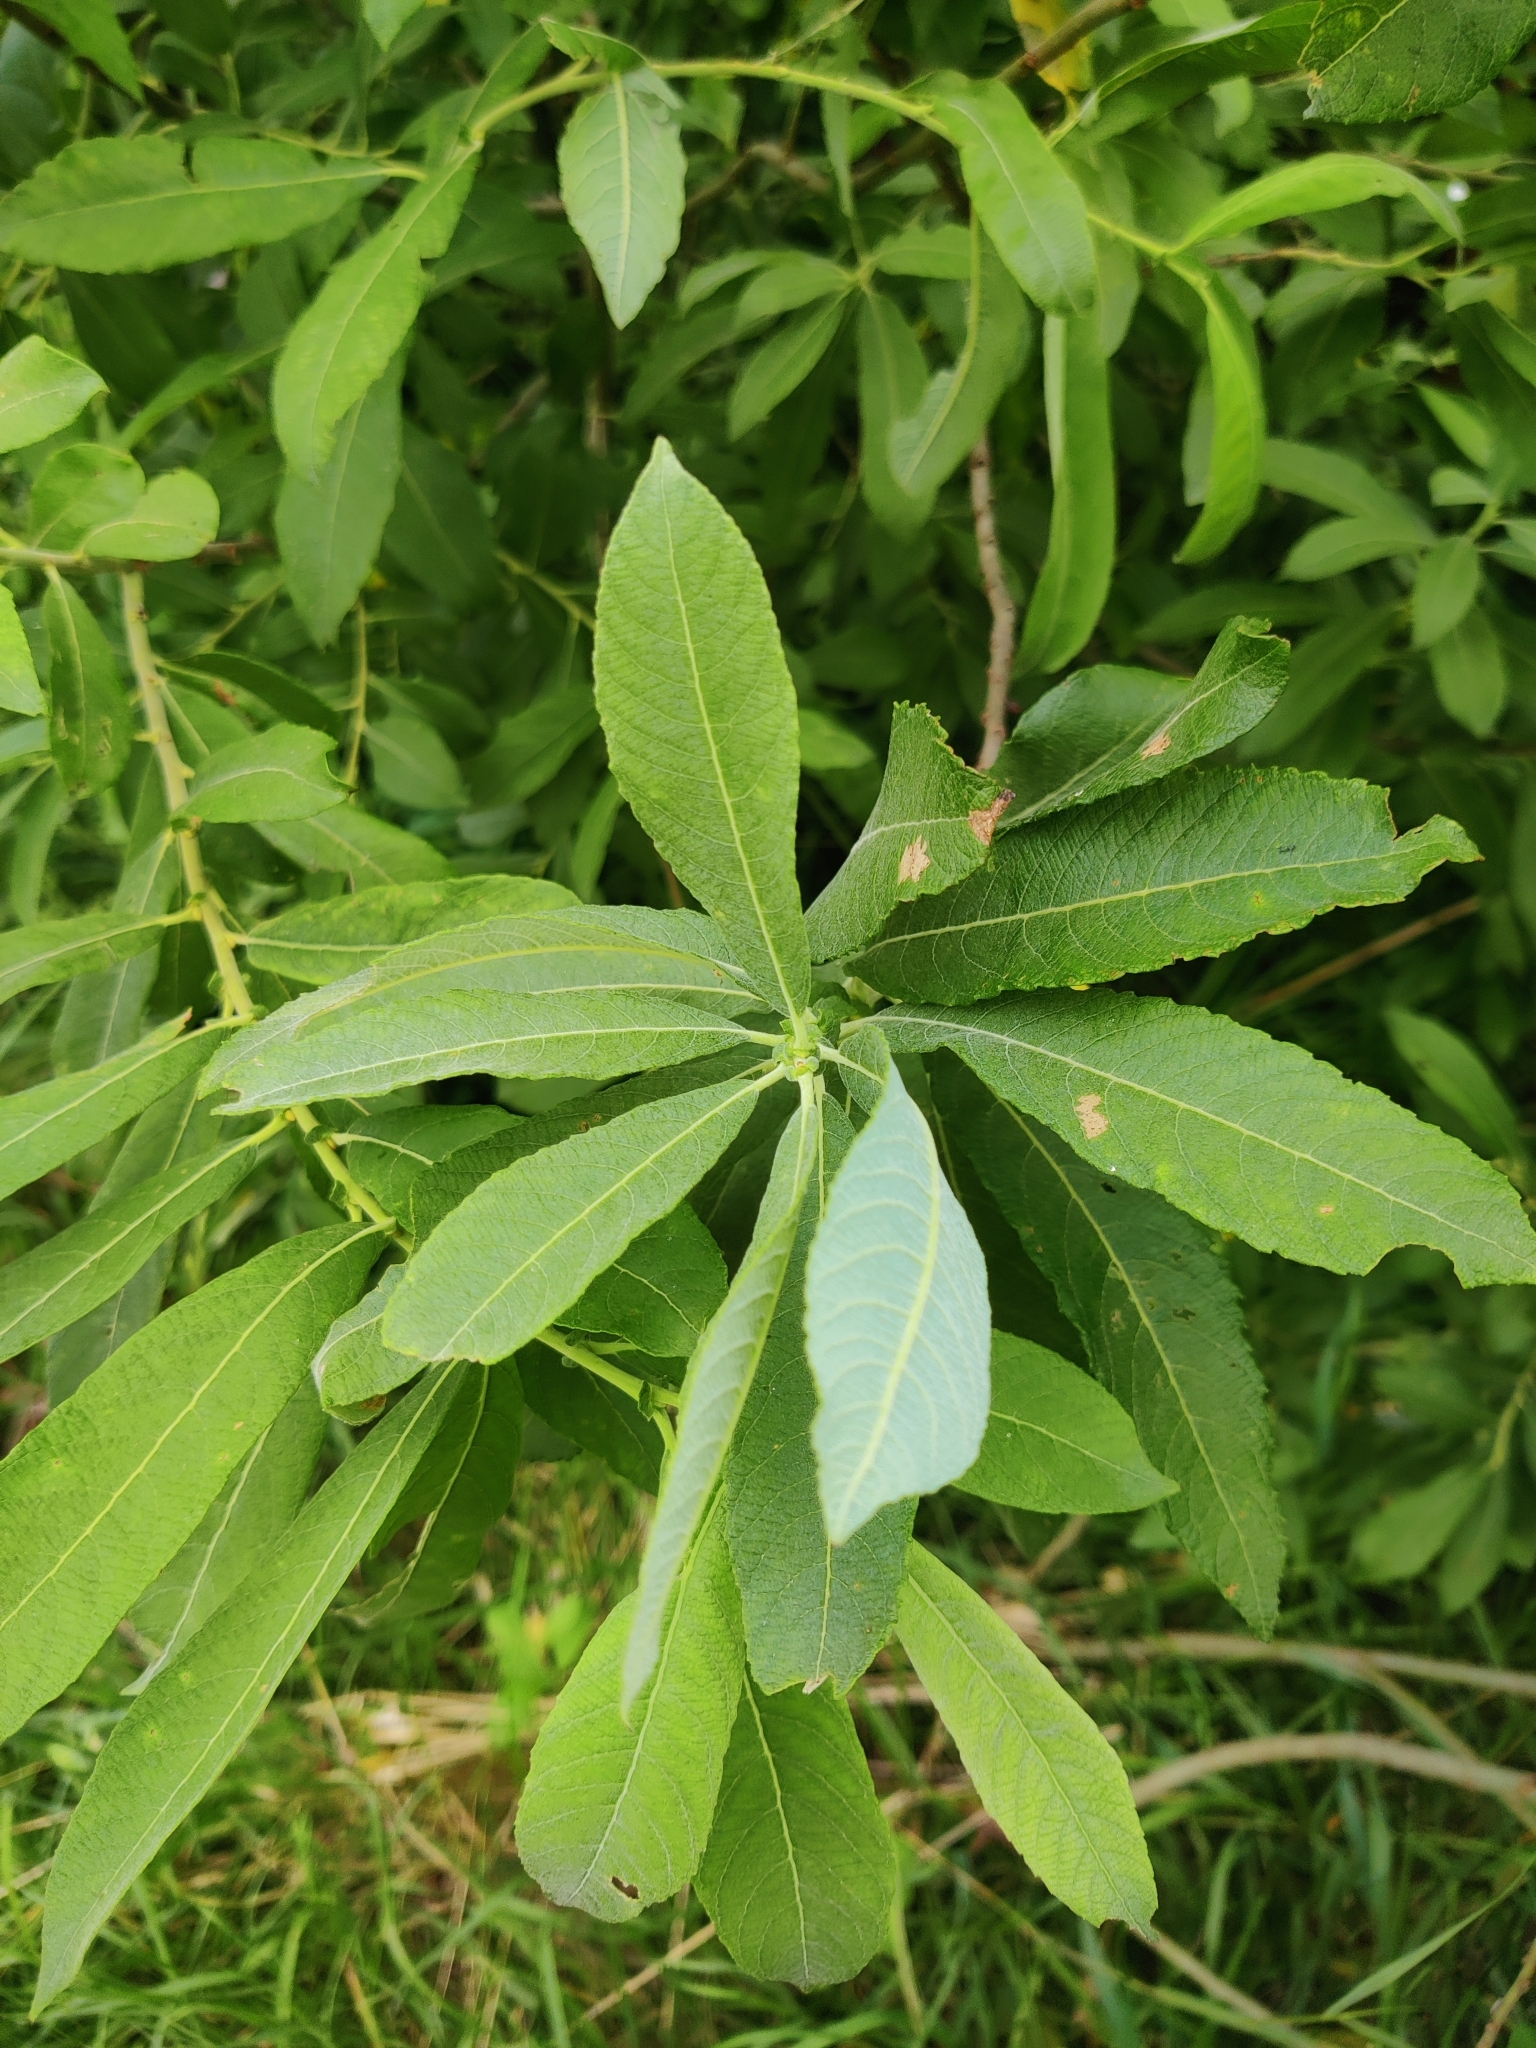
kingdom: Plantae
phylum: Tracheophyta
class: Magnoliopsida
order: Malpighiales
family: Salicaceae
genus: Salix
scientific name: Salix cinerea
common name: Common sallow
